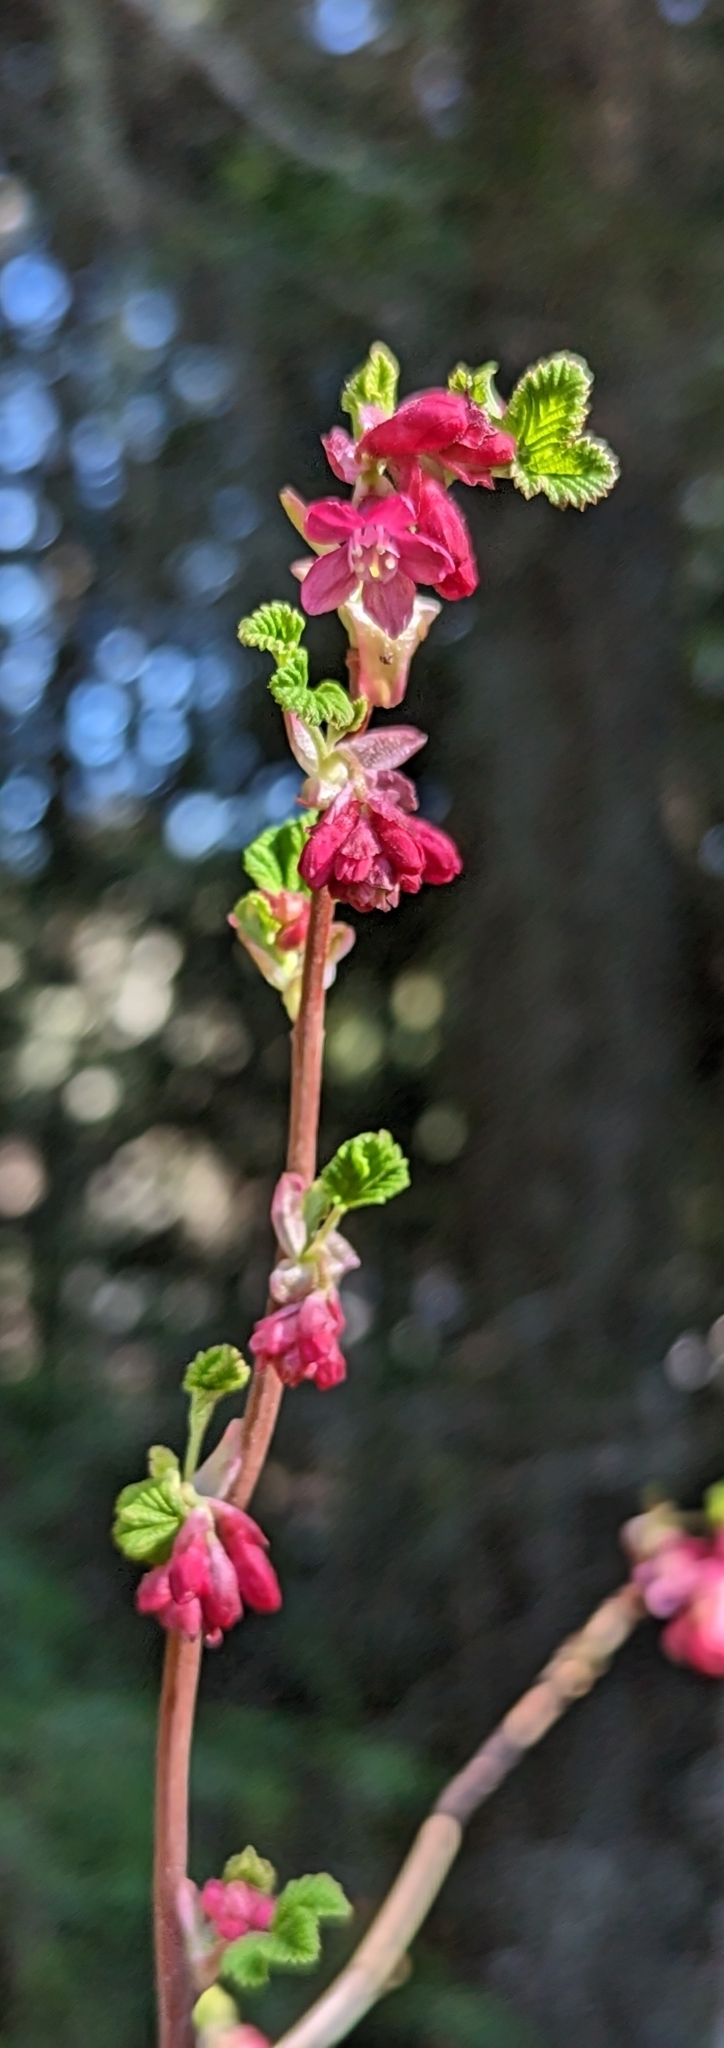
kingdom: Plantae
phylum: Tracheophyta
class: Magnoliopsida
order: Saxifragales
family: Grossulariaceae
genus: Ribes
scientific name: Ribes sanguineum
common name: Flowering currant
